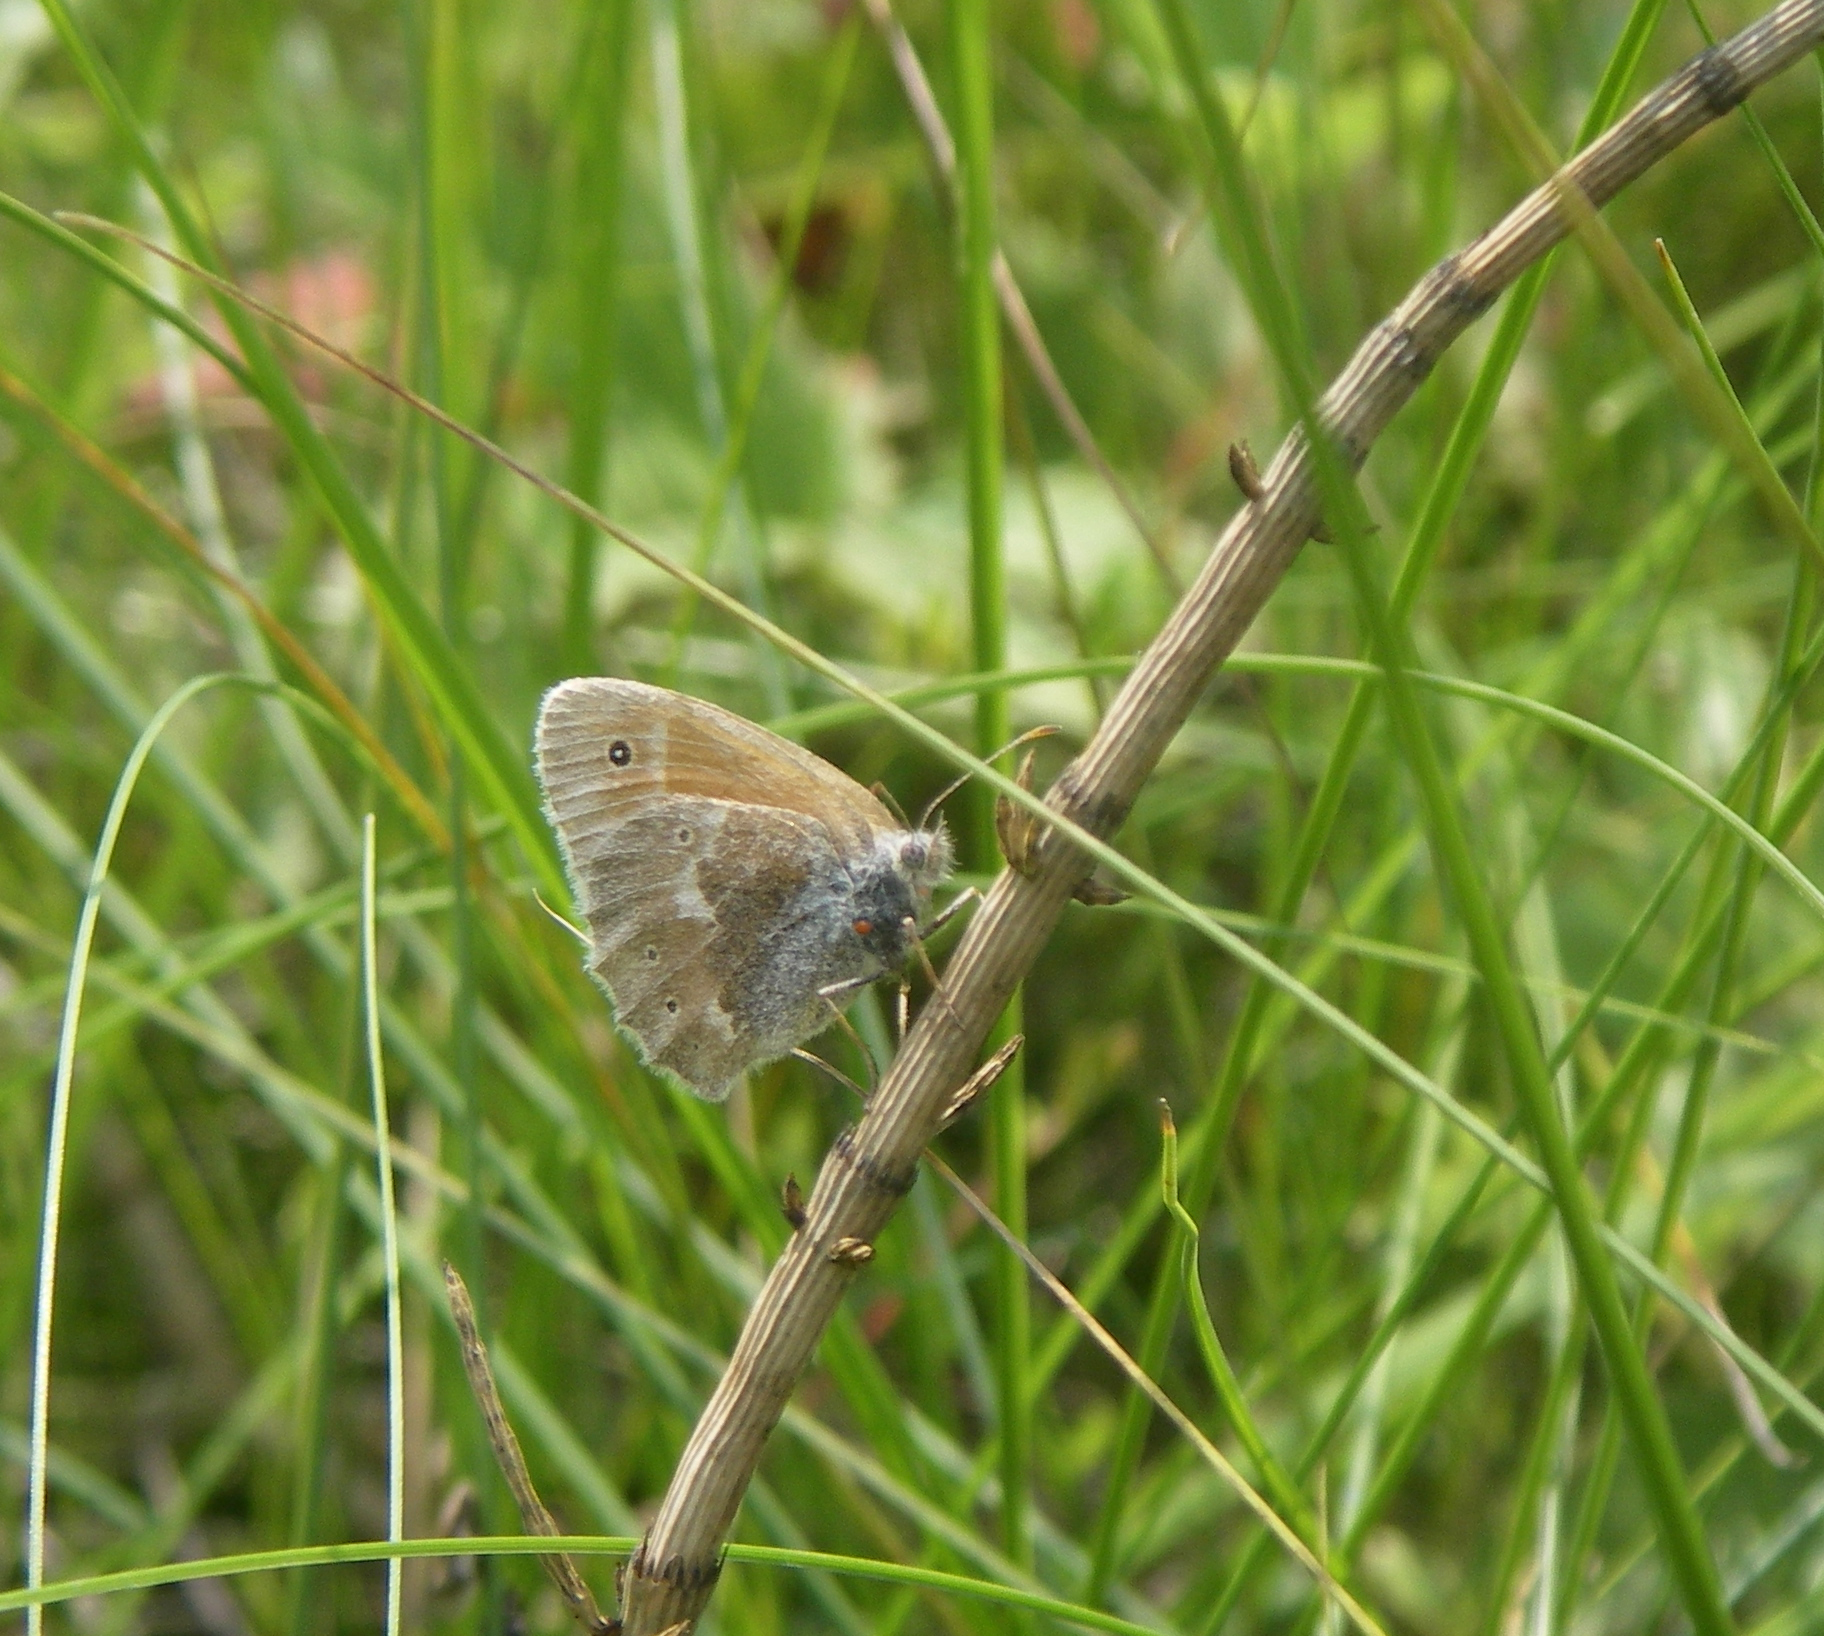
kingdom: Plantae
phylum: Tracheophyta
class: Polypodiopsida
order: Equisetales
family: Equisetaceae
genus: Equisetum
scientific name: Equisetum fluviatile
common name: Water horsetail
